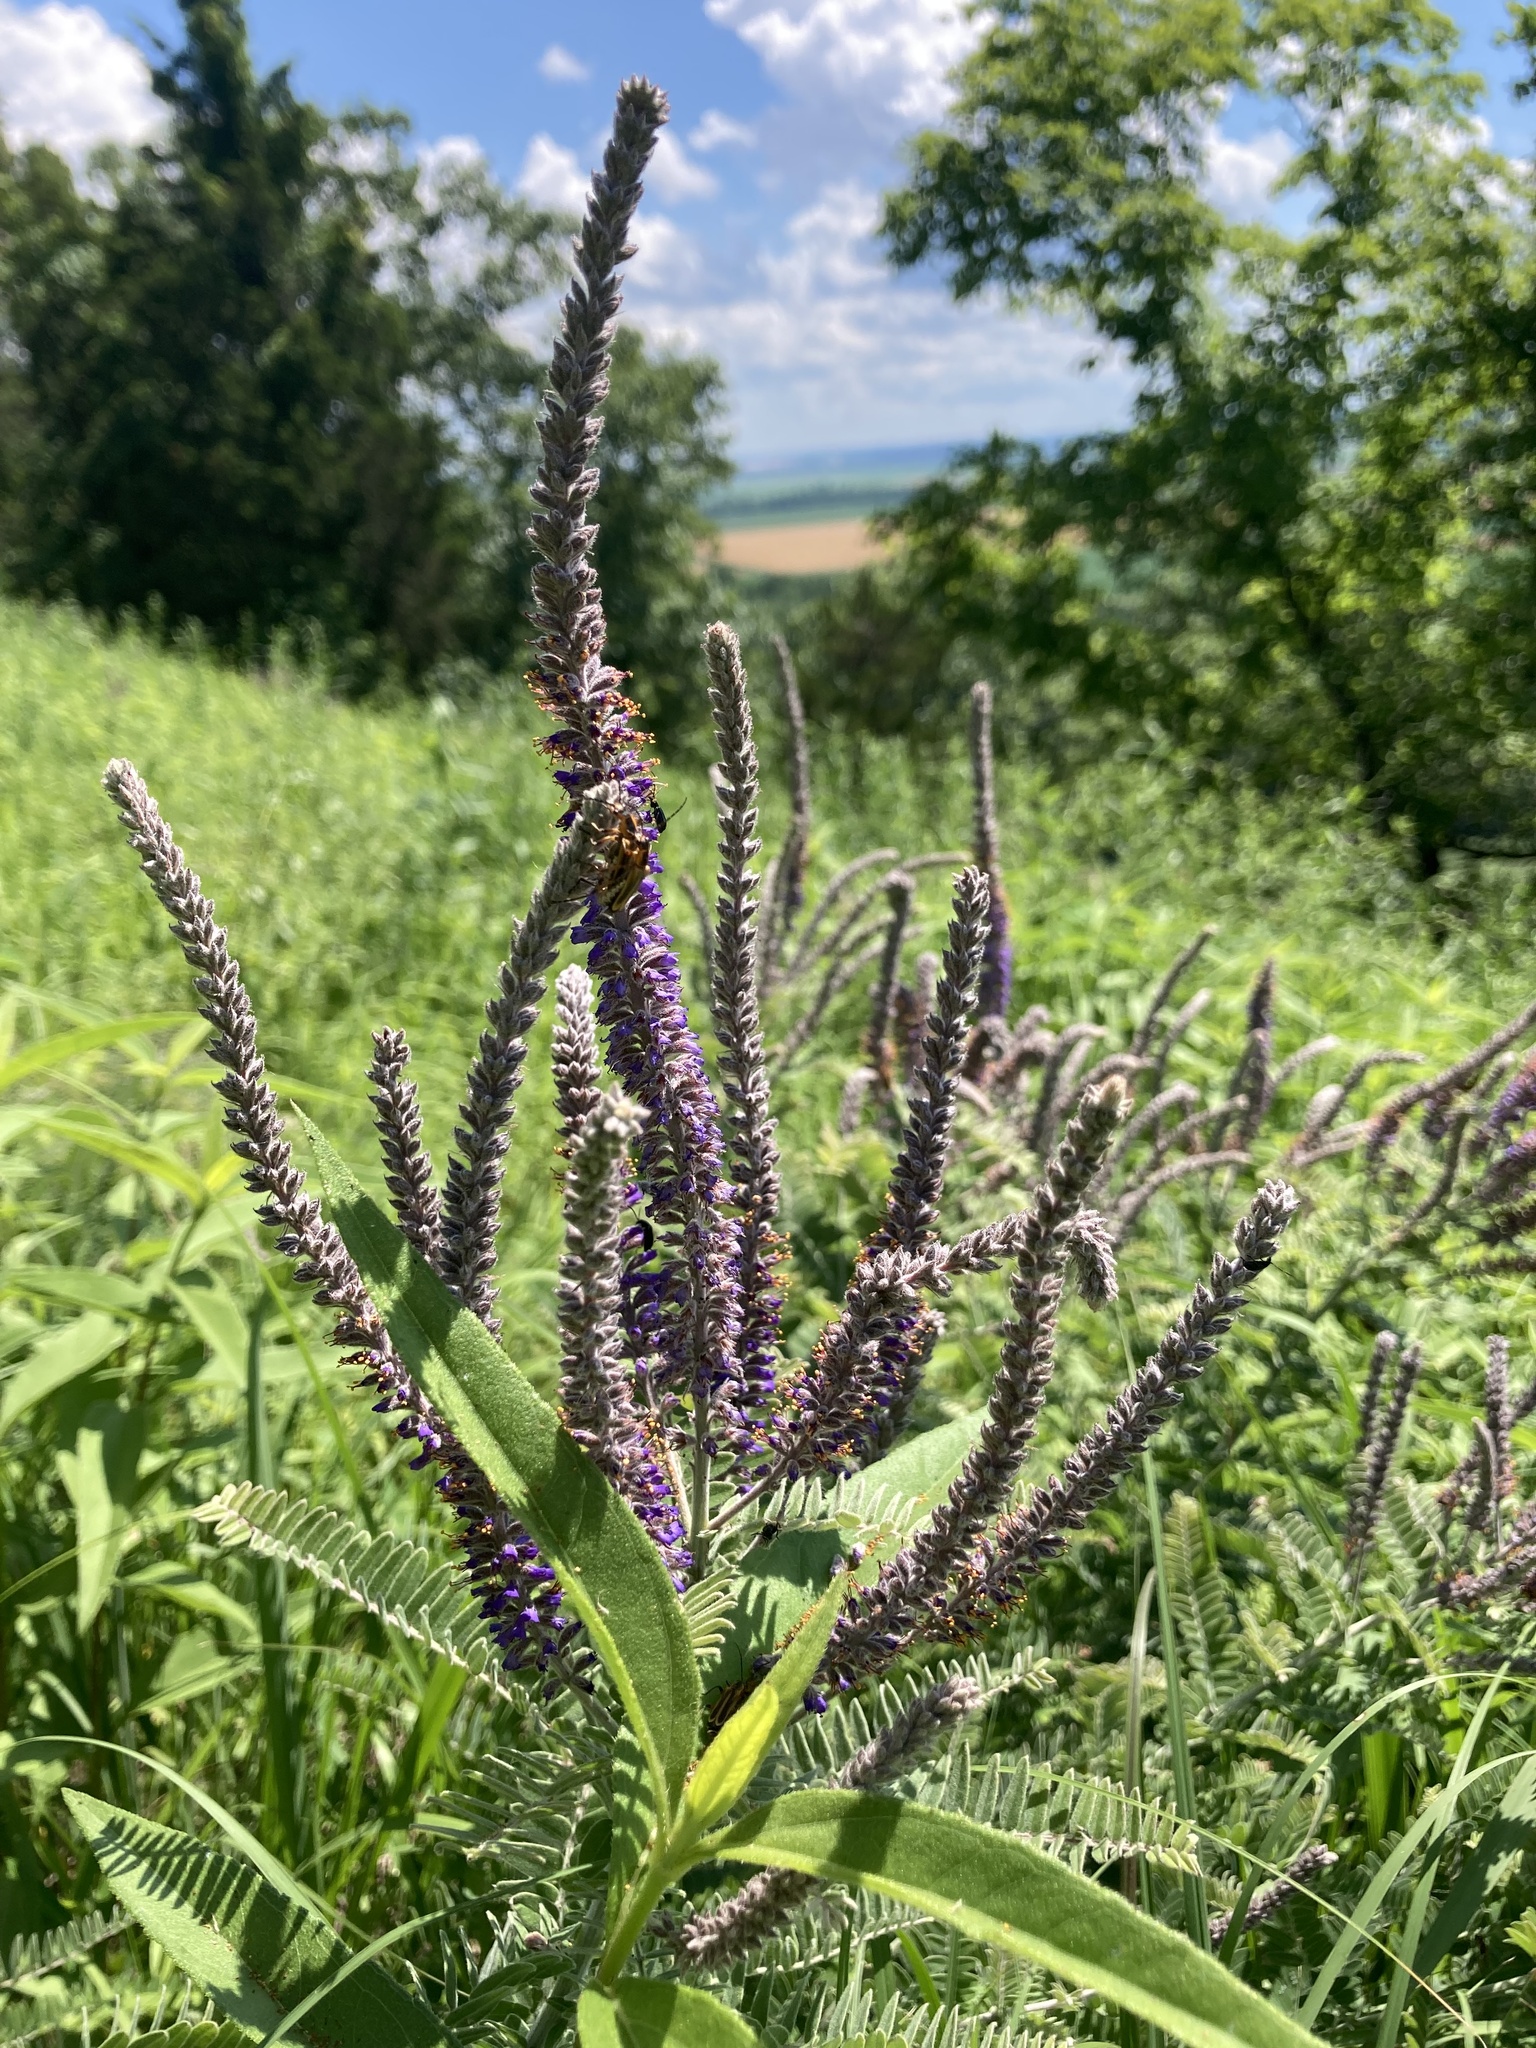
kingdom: Plantae
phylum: Tracheophyta
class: Magnoliopsida
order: Fabales
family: Fabaceae
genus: Amorpha
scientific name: Amorpha canescens
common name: Leadplant
